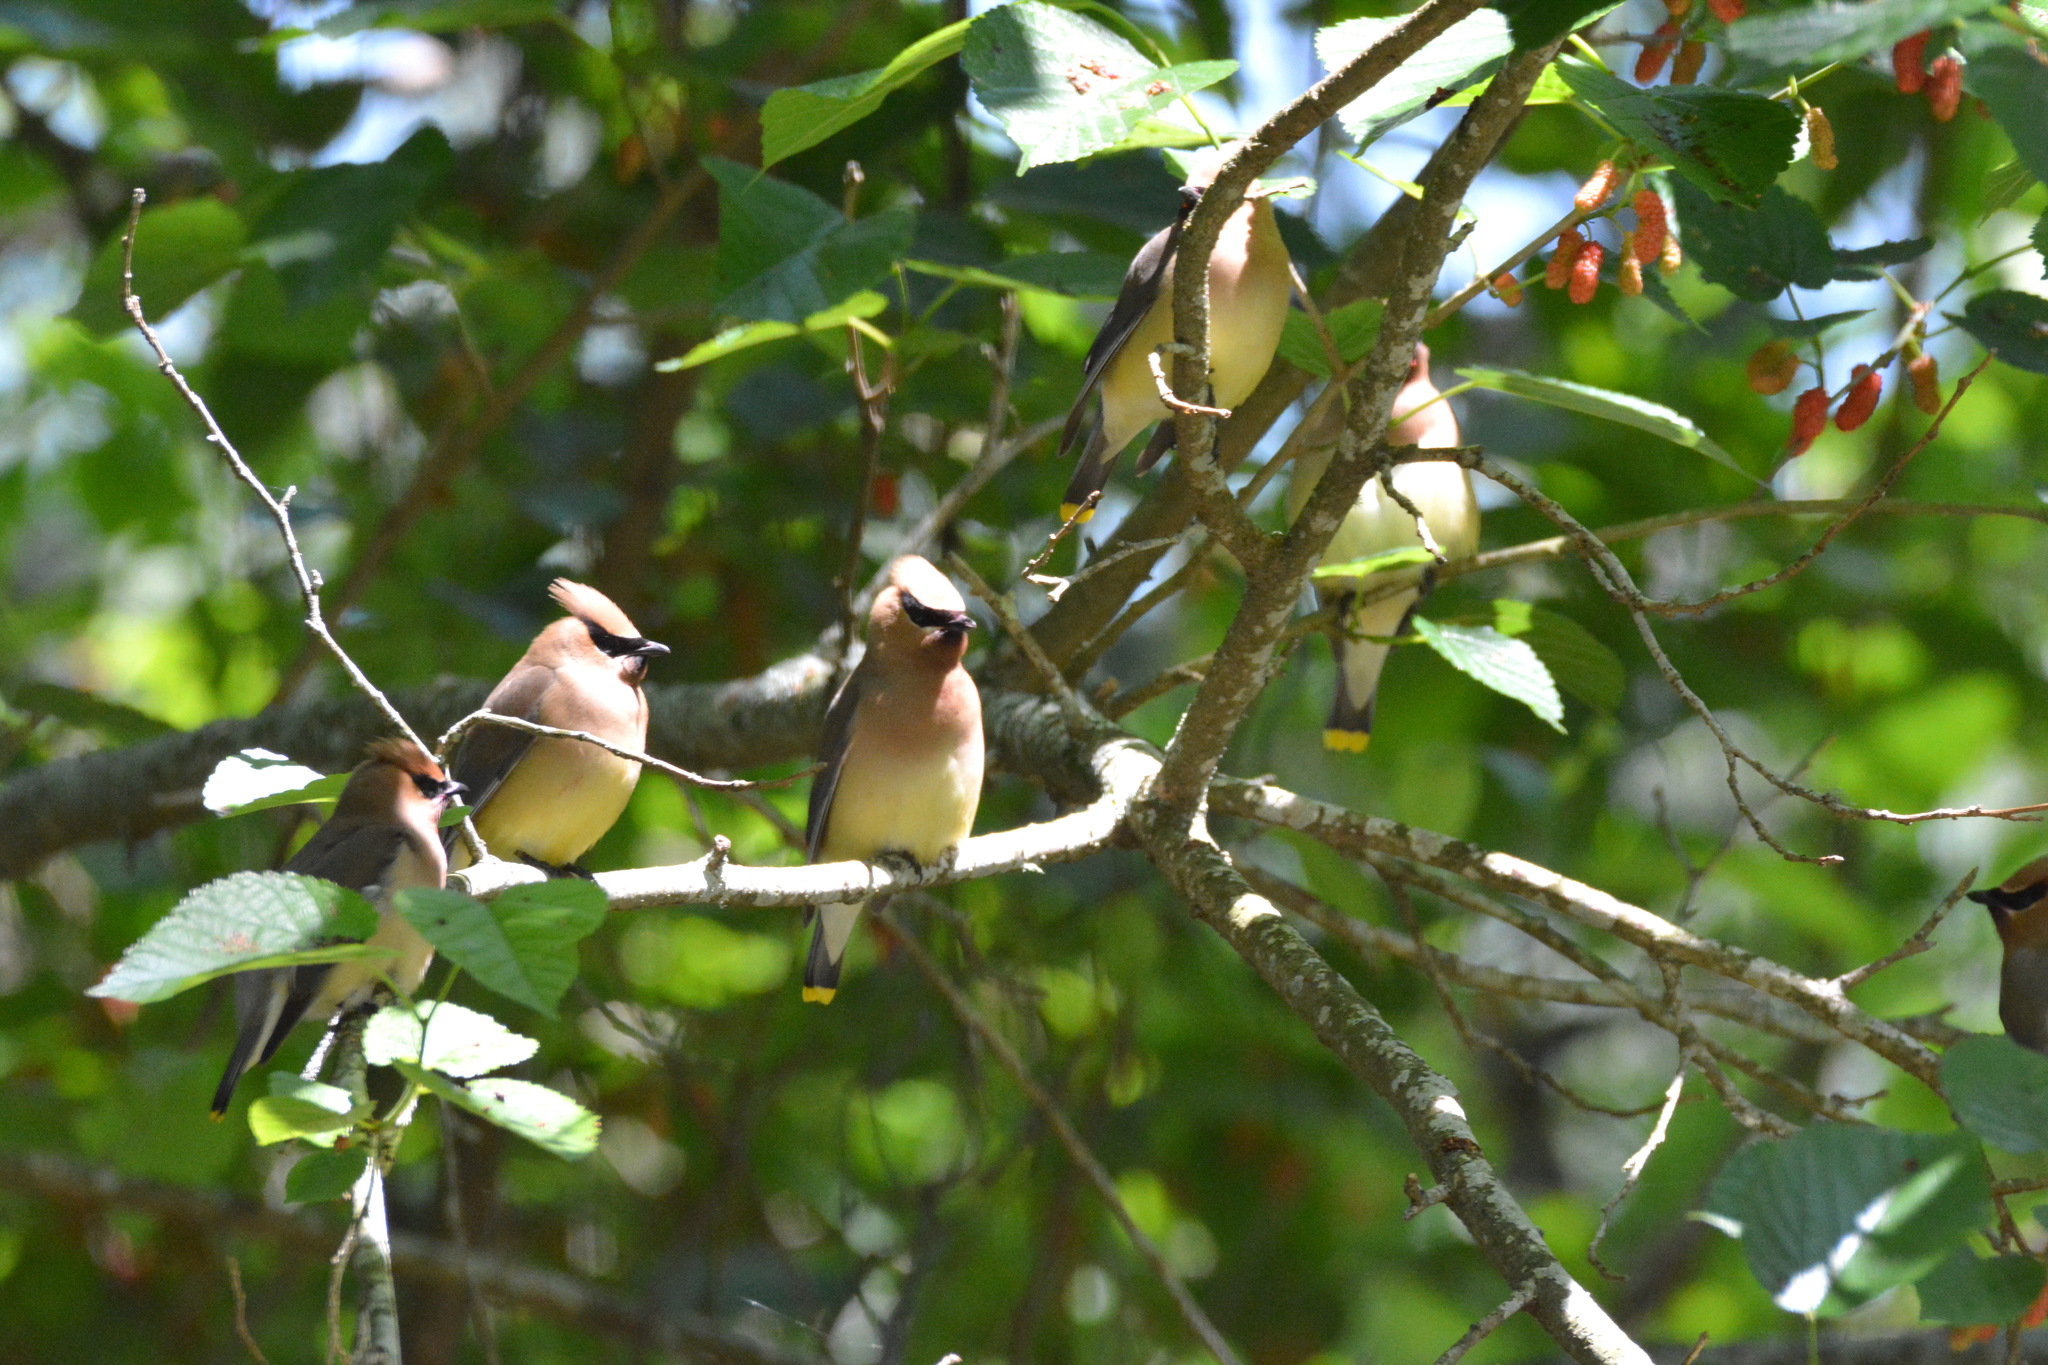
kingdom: Animalia
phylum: Chordata
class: Aves
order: Passeriformes
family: Bombycillidae
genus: Bombycilla
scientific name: Bombycilla cedrorum
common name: Cedar waxwing
